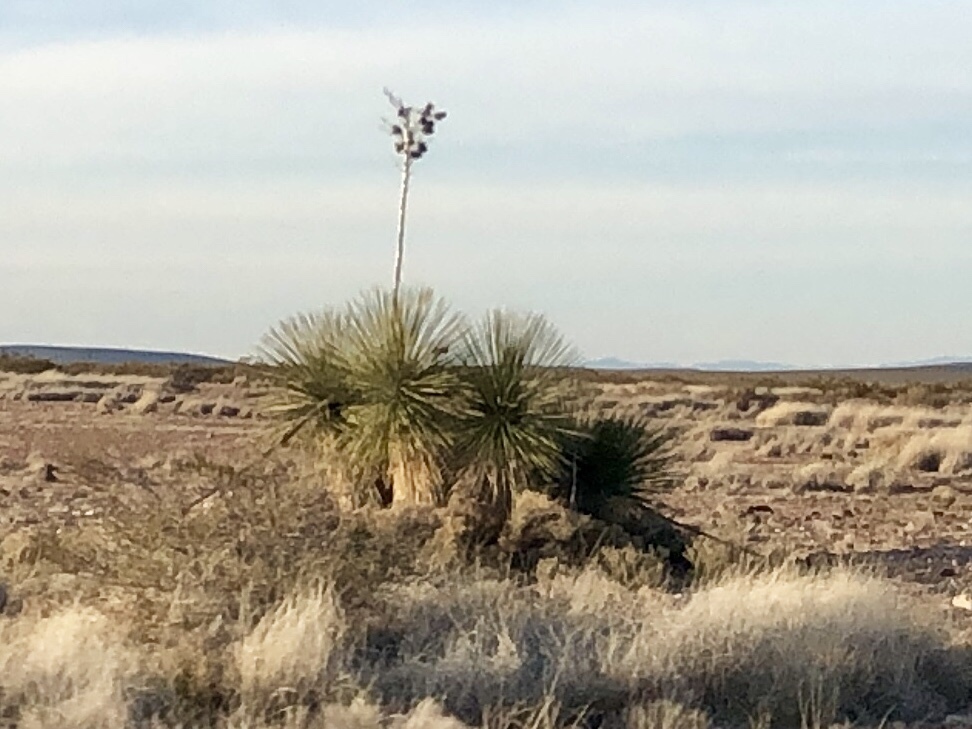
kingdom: Plantae
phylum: Tracheophyta
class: Liliopsida
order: Asparagales
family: Asparagaceae
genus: Yucca
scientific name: Yucca elata
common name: Palmella
